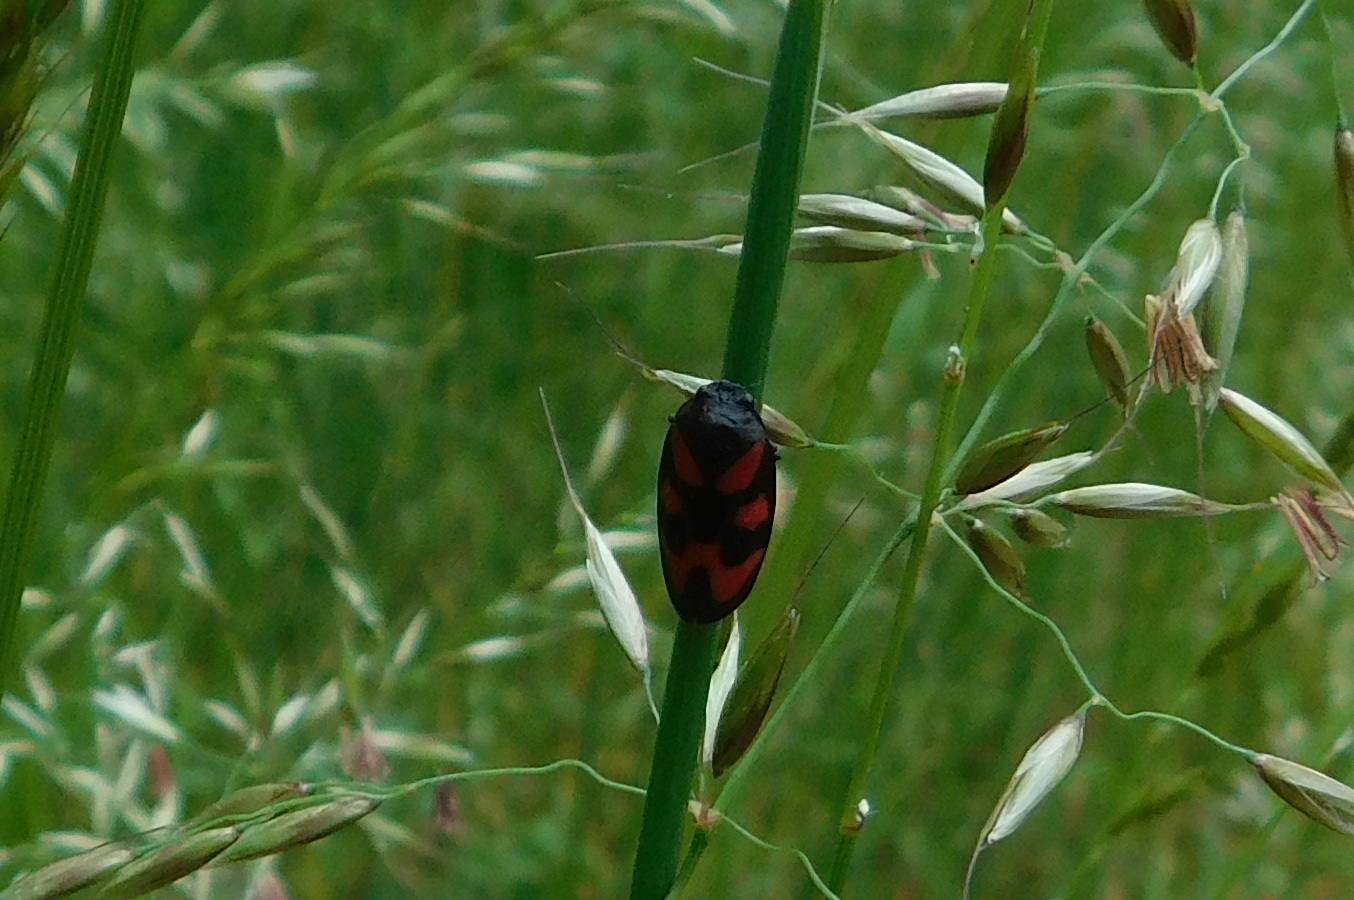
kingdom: Animalia
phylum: Arthropoda
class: Insecta
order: Hemiptera
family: Cercopidae
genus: Cercopis
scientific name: Cercopis vulnerata
